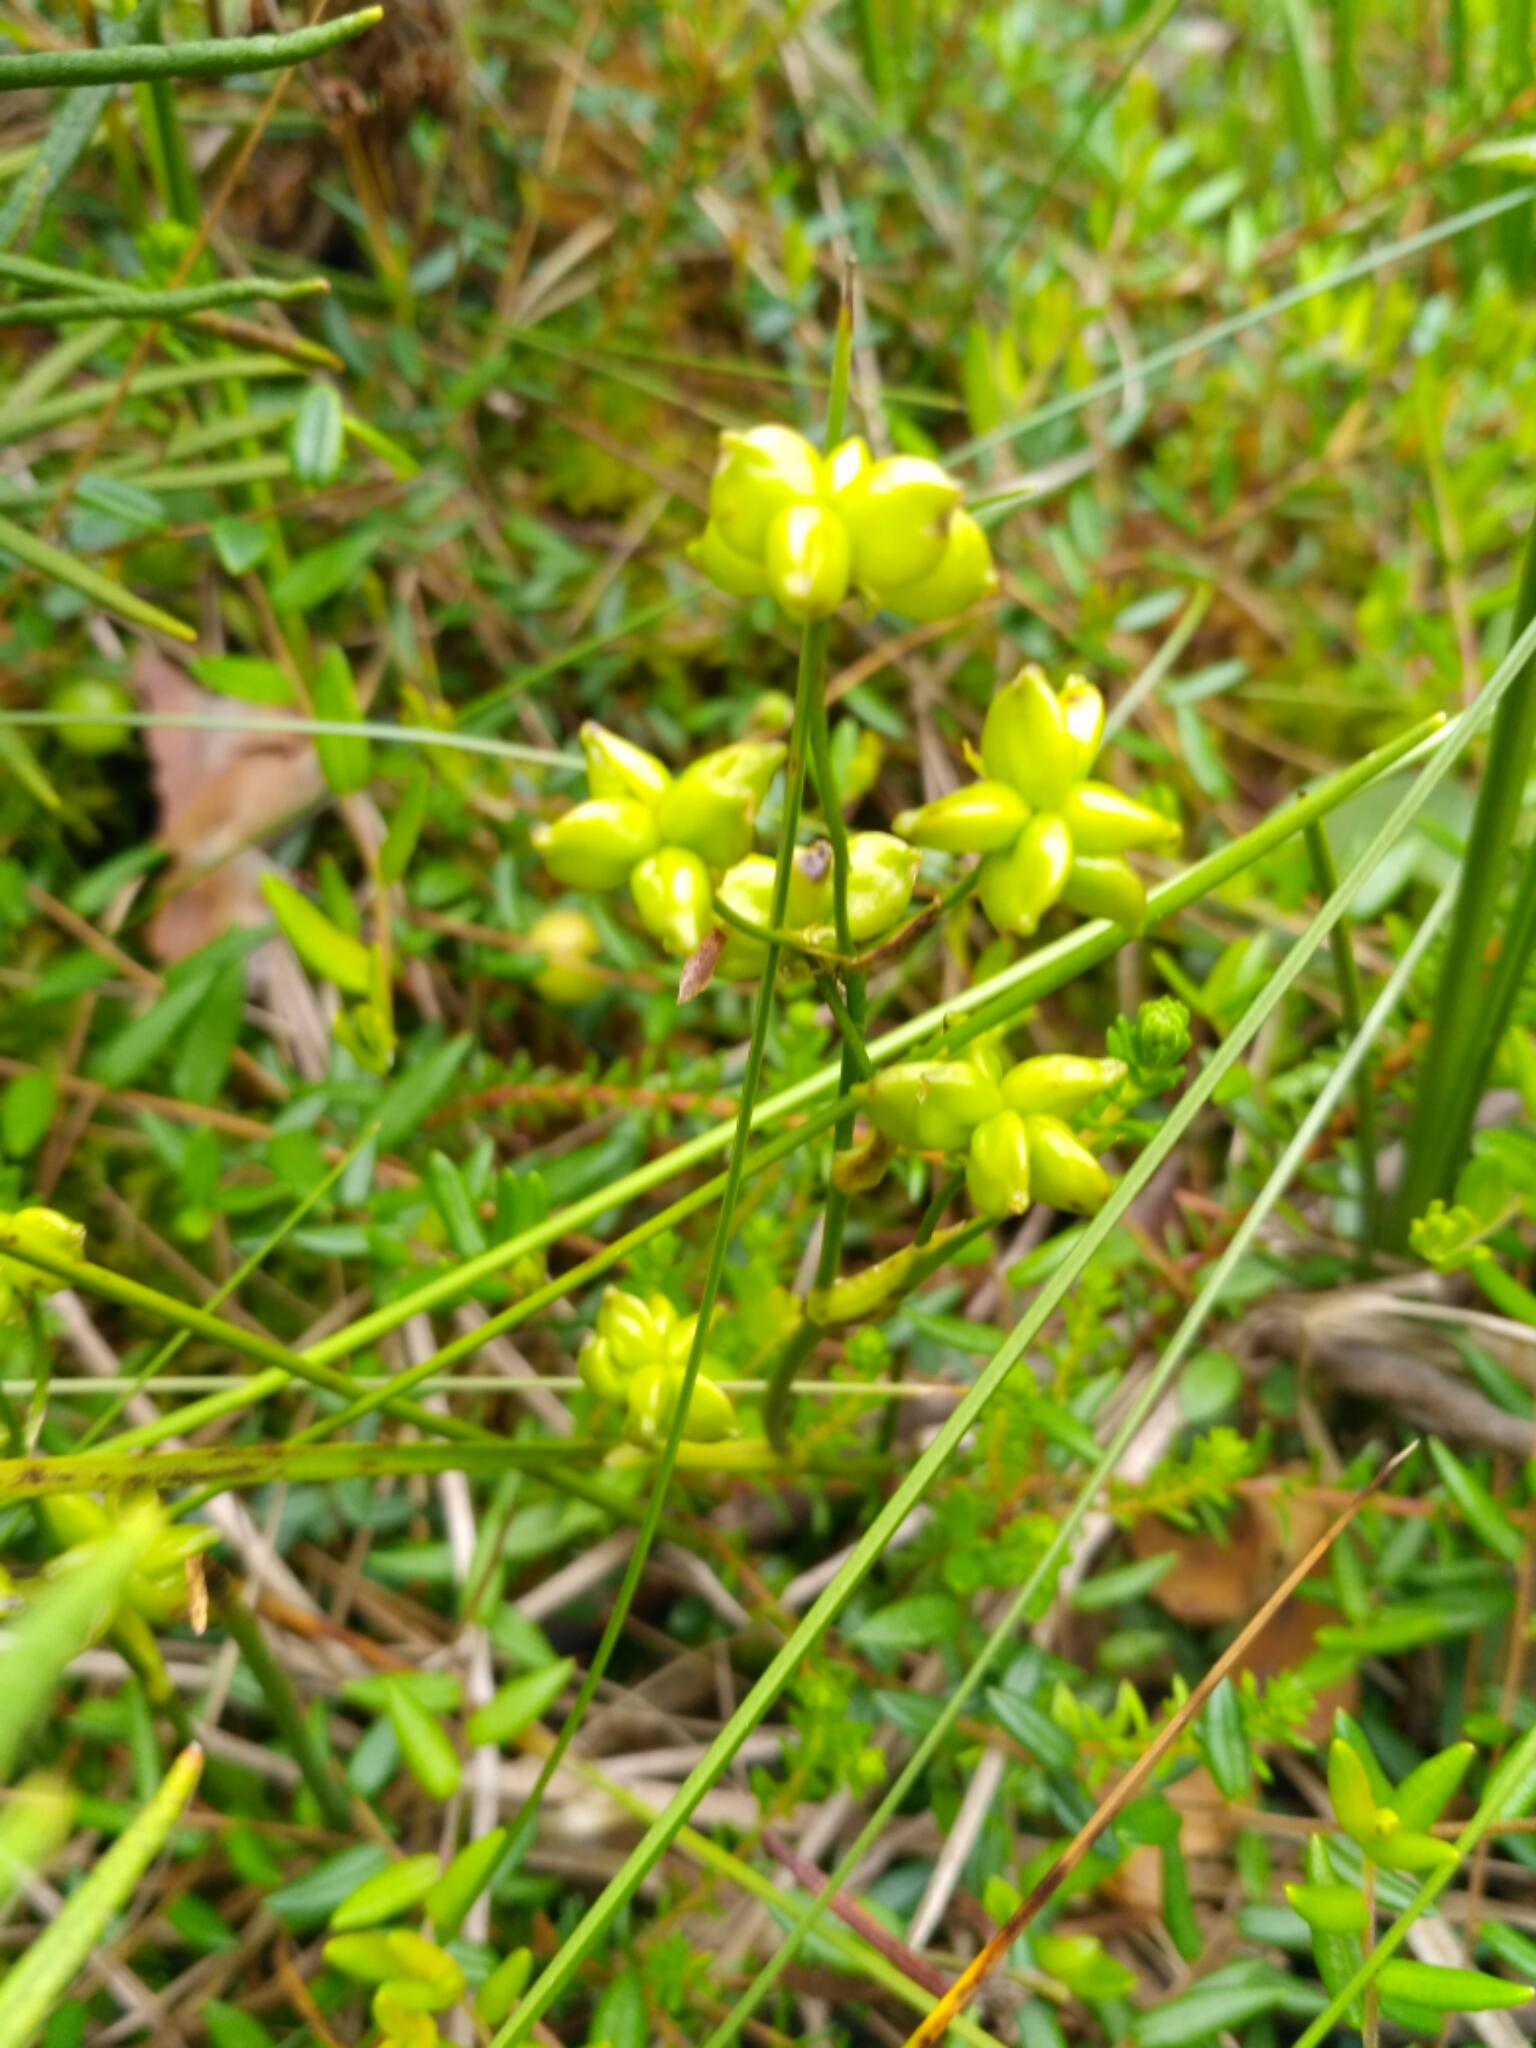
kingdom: Plantae
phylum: Tracheophyta
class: Liliopsida
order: Alismatales
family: Scheuchzeriaceae
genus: Scheuchzeria
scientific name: Scheuchzeria palustris
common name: Rannoch-rush
